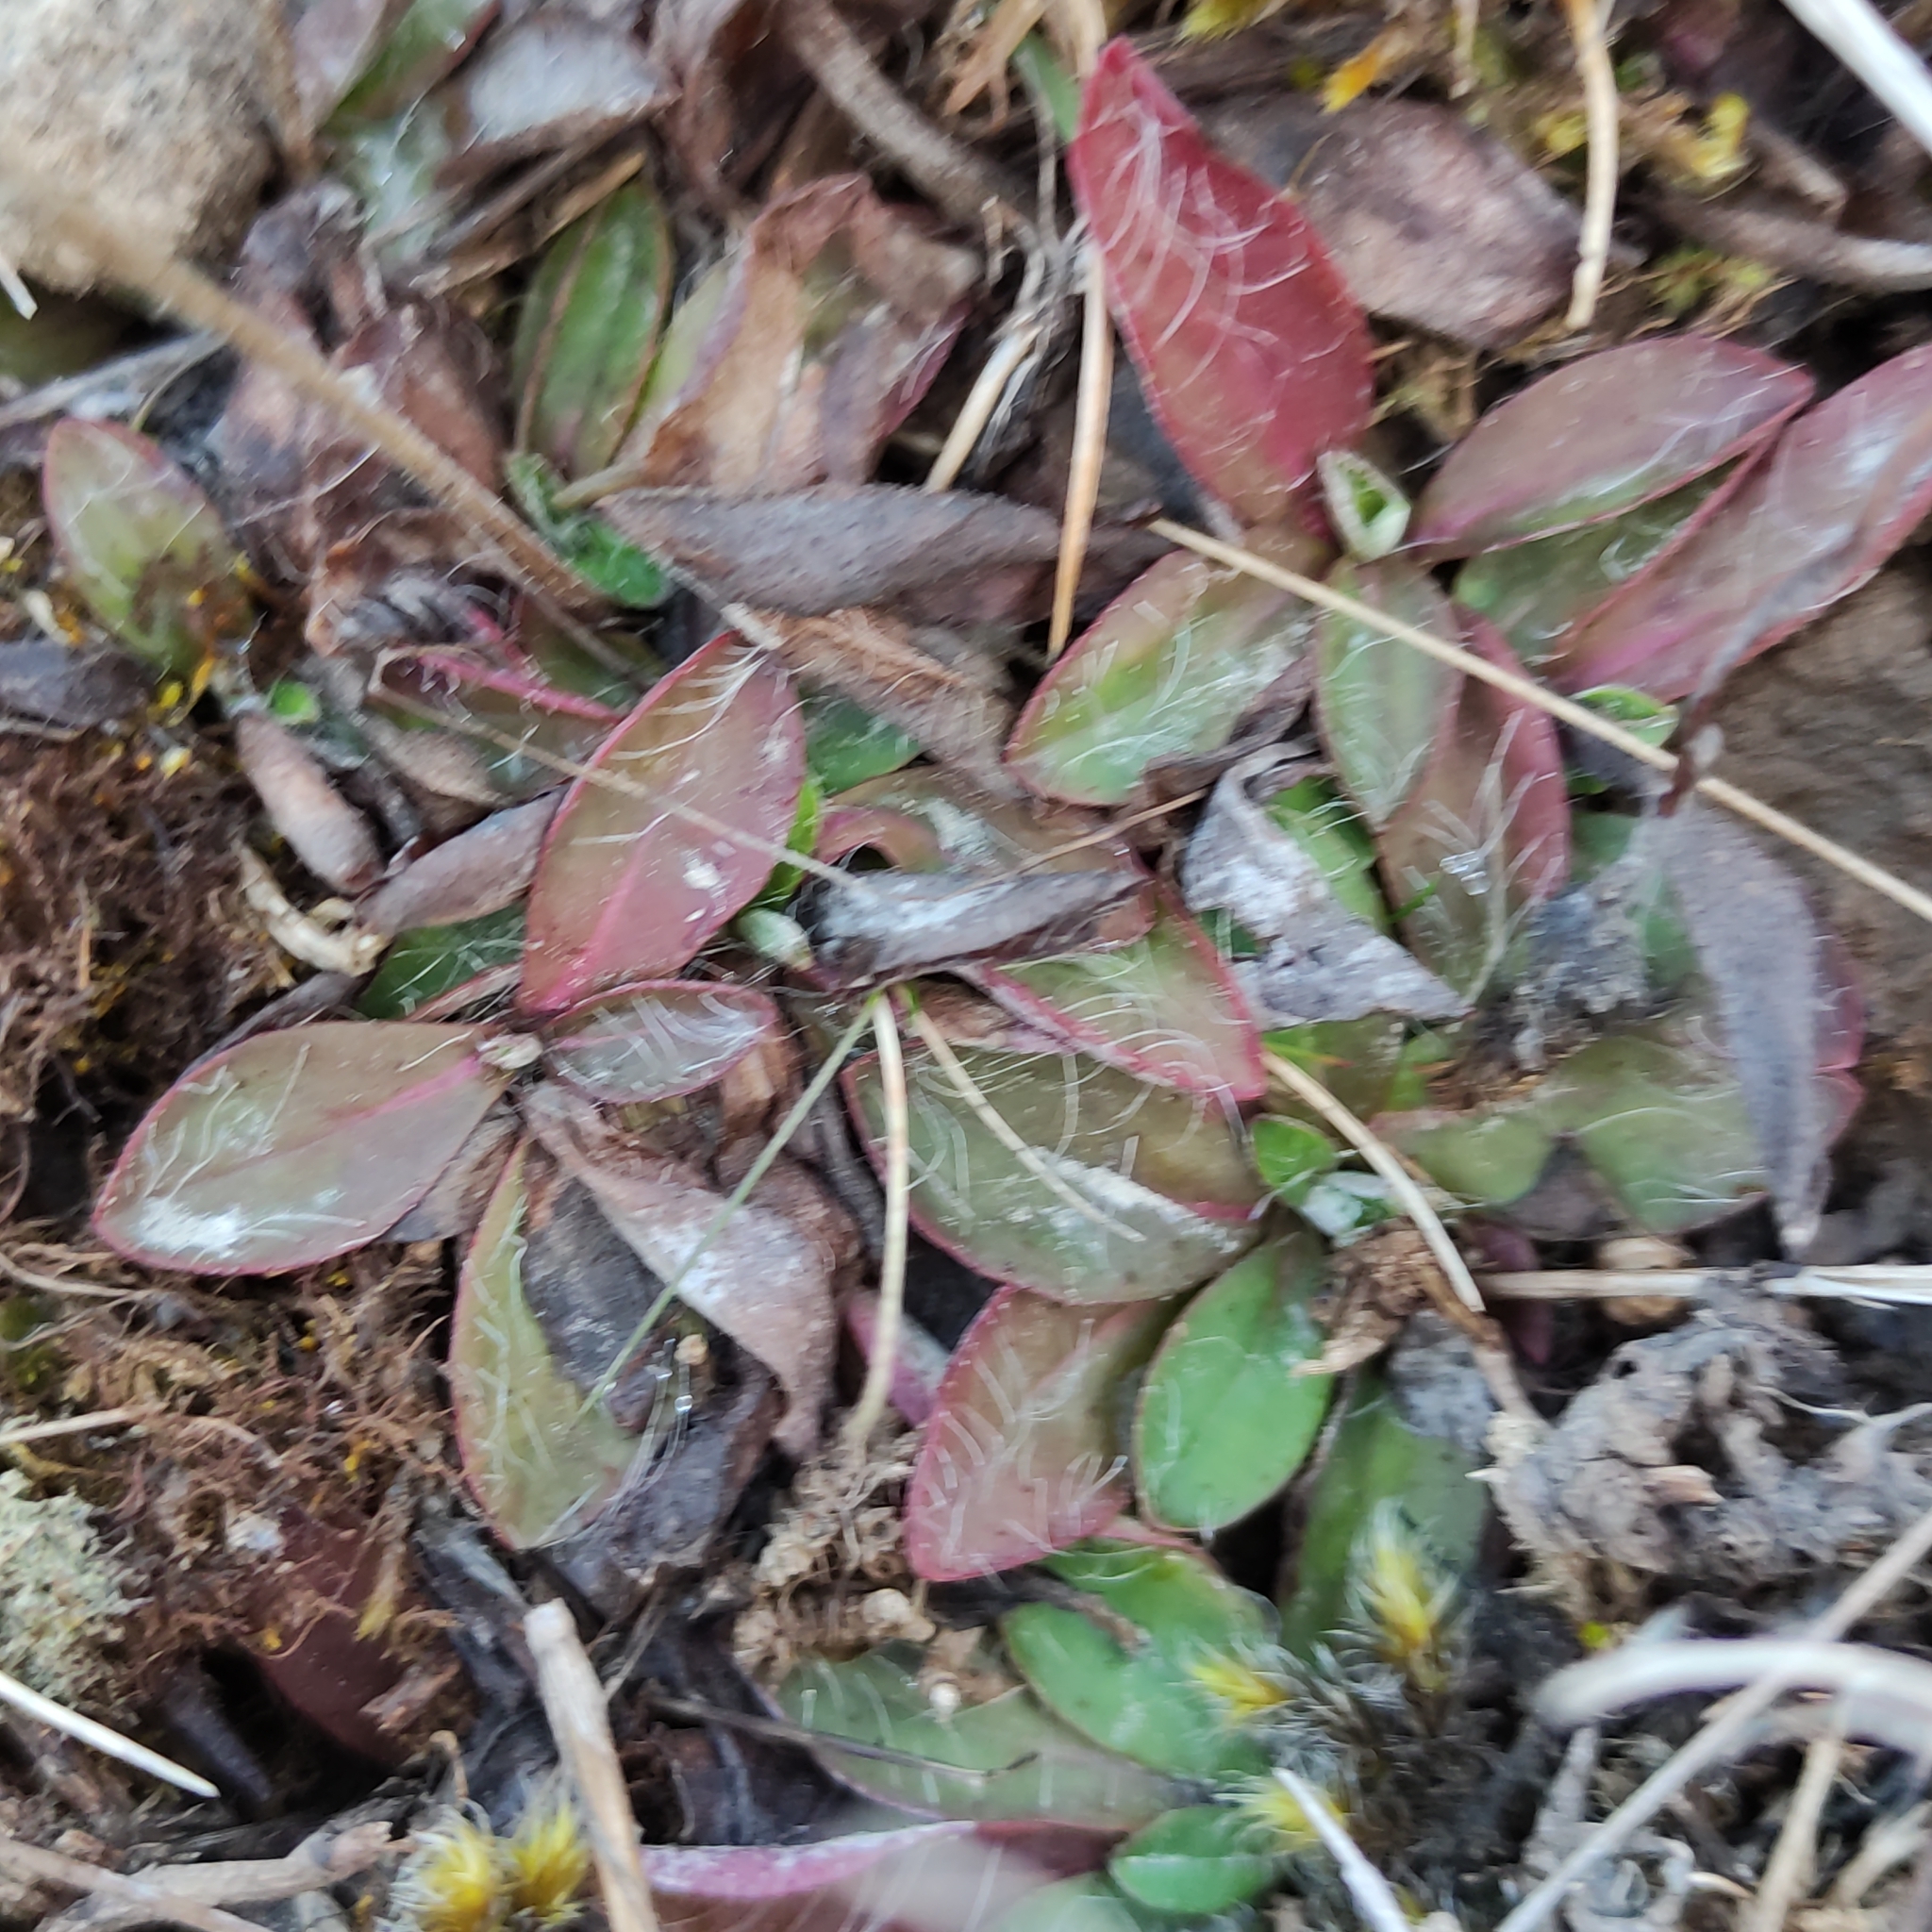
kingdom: Plantae
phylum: Tracheophyta
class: Magnoliopsida
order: Asterales
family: Asteraceae
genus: Pilosella
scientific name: Pilosella officinarum
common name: Mouse-ear hawkweed
